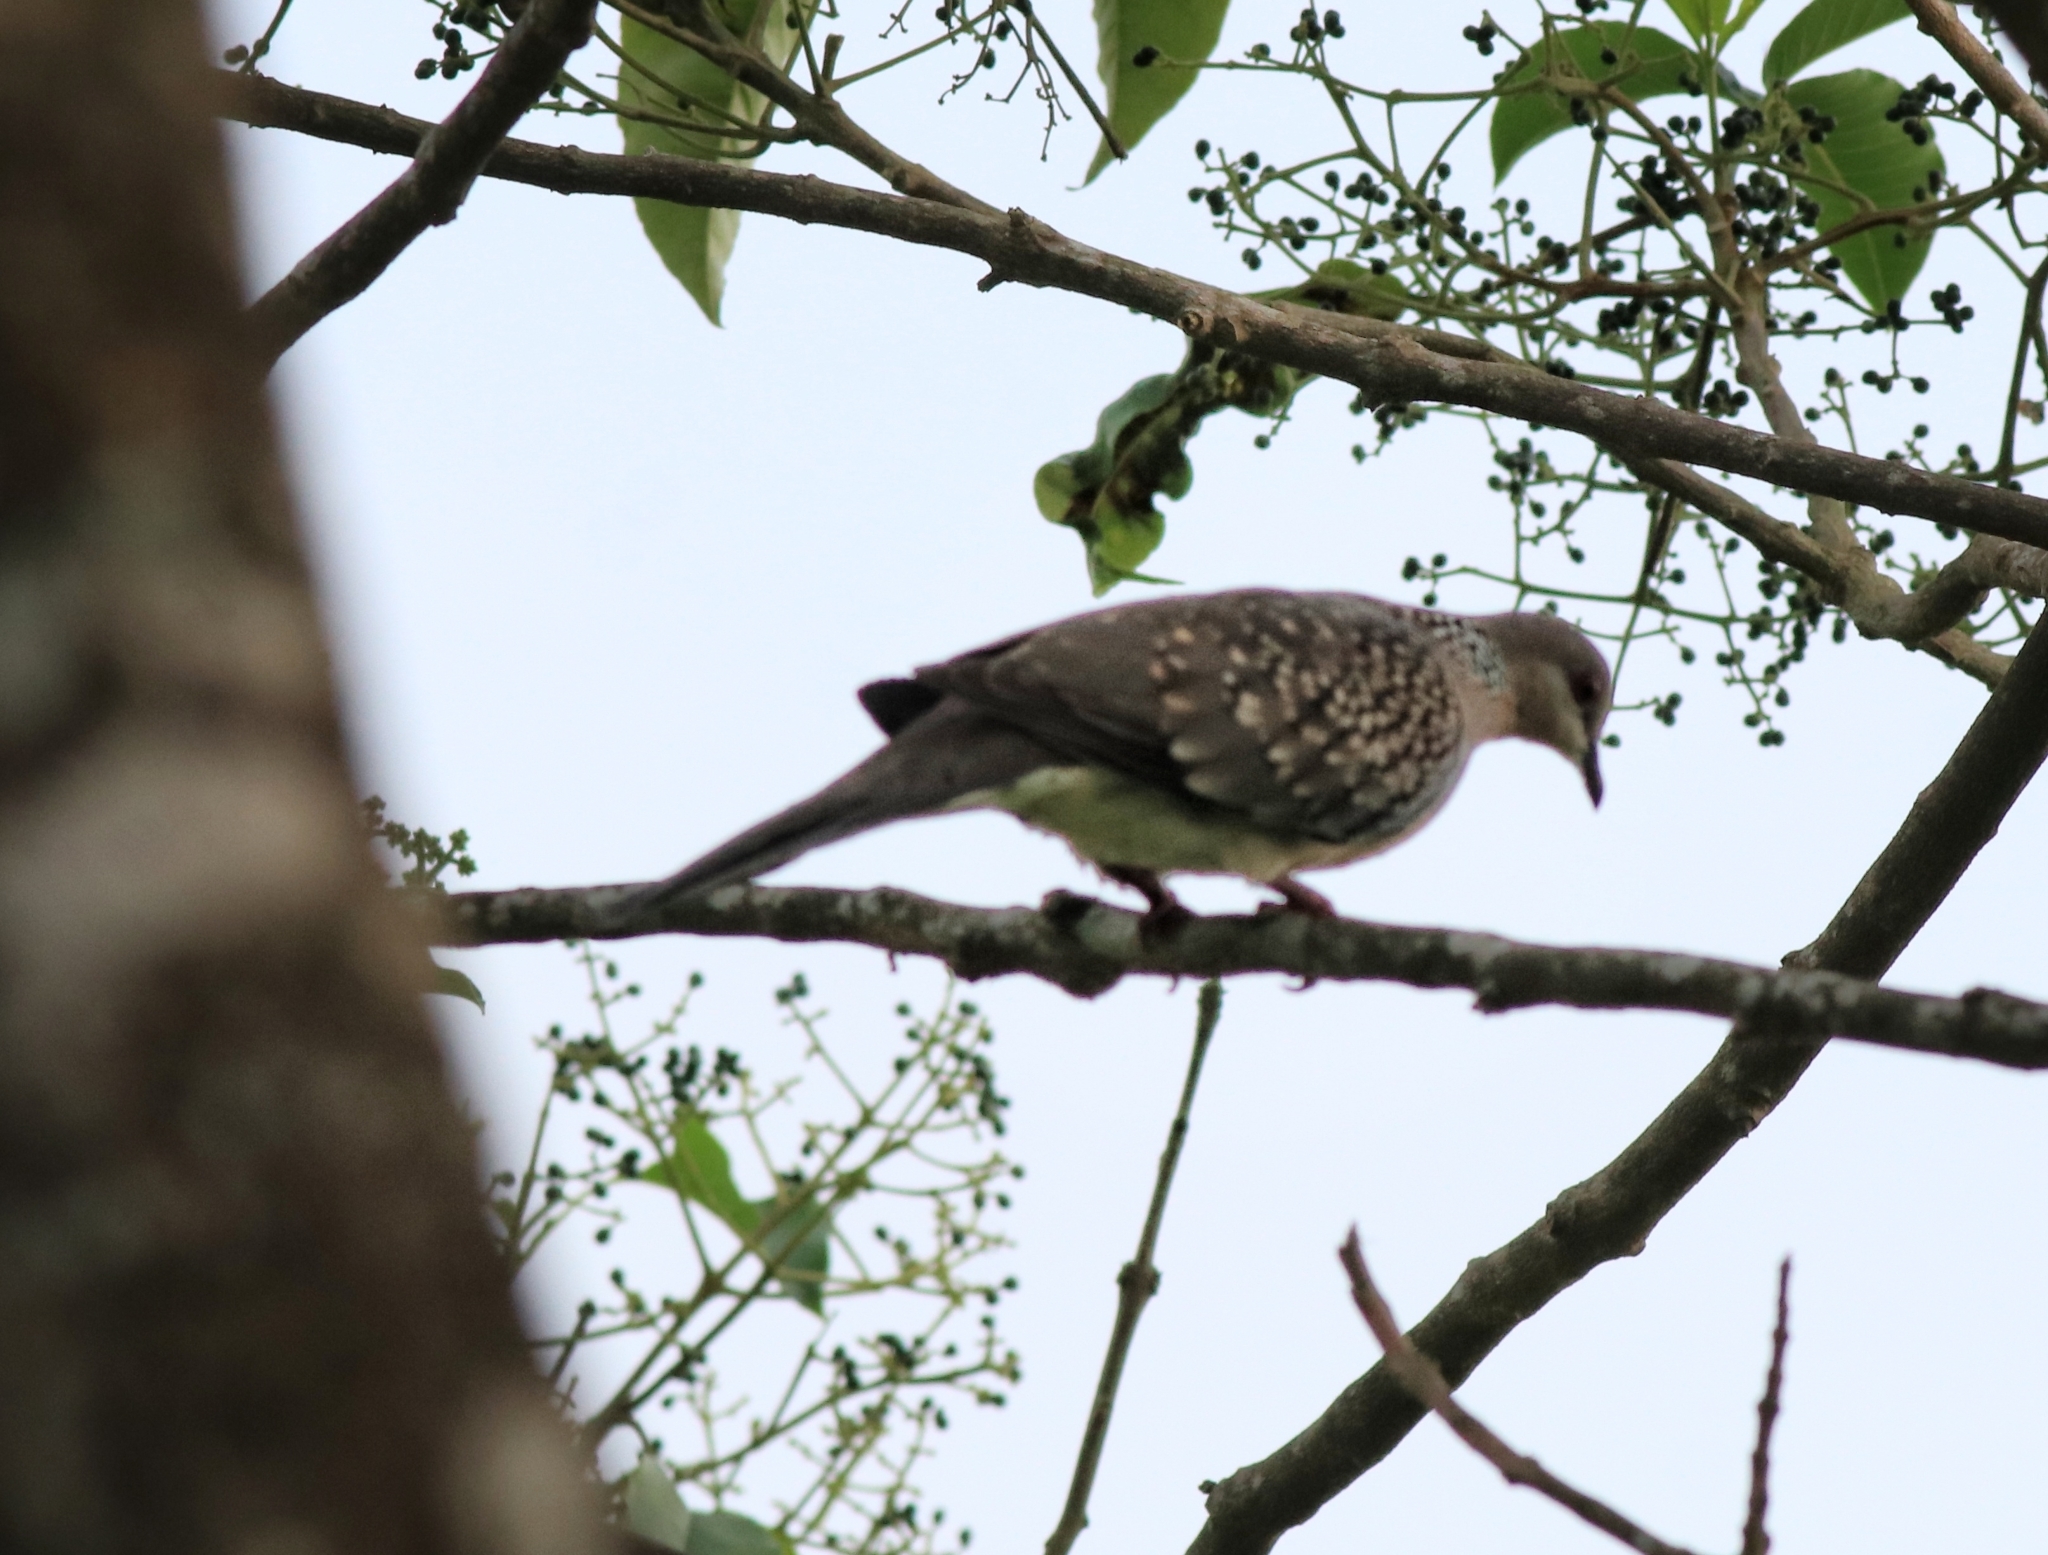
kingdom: Animalia
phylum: Chordata
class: Aves
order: Columbiformes
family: Columbidae
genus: Spilopelia
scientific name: Spilopelia chinensis
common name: Spotted dove
